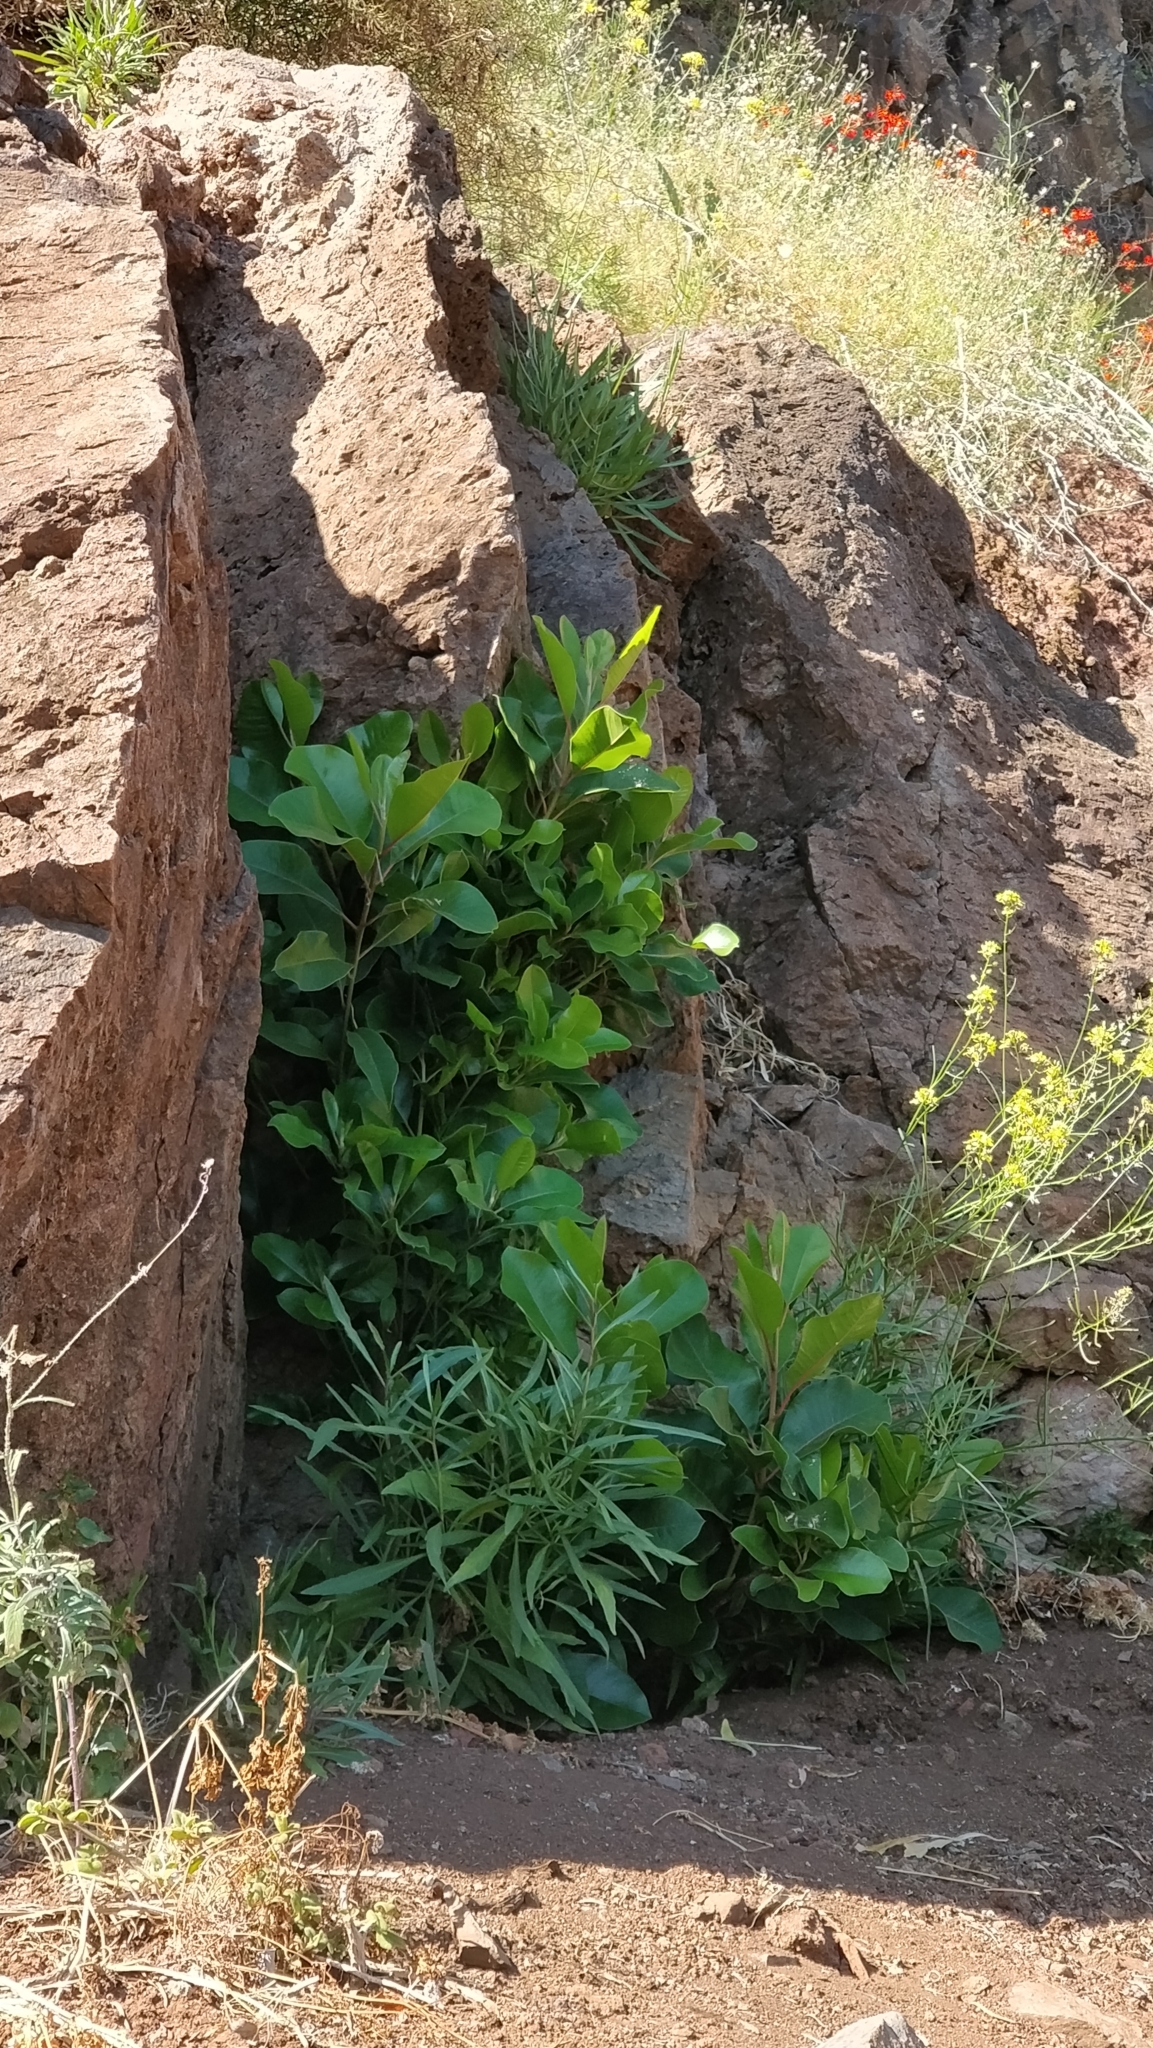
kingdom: Plantae
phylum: Tracheophyta
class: Magnoliopsida
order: Ericales
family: Sapotaceae
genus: Sideroxylon
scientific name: Sideroxylon mirmulans
